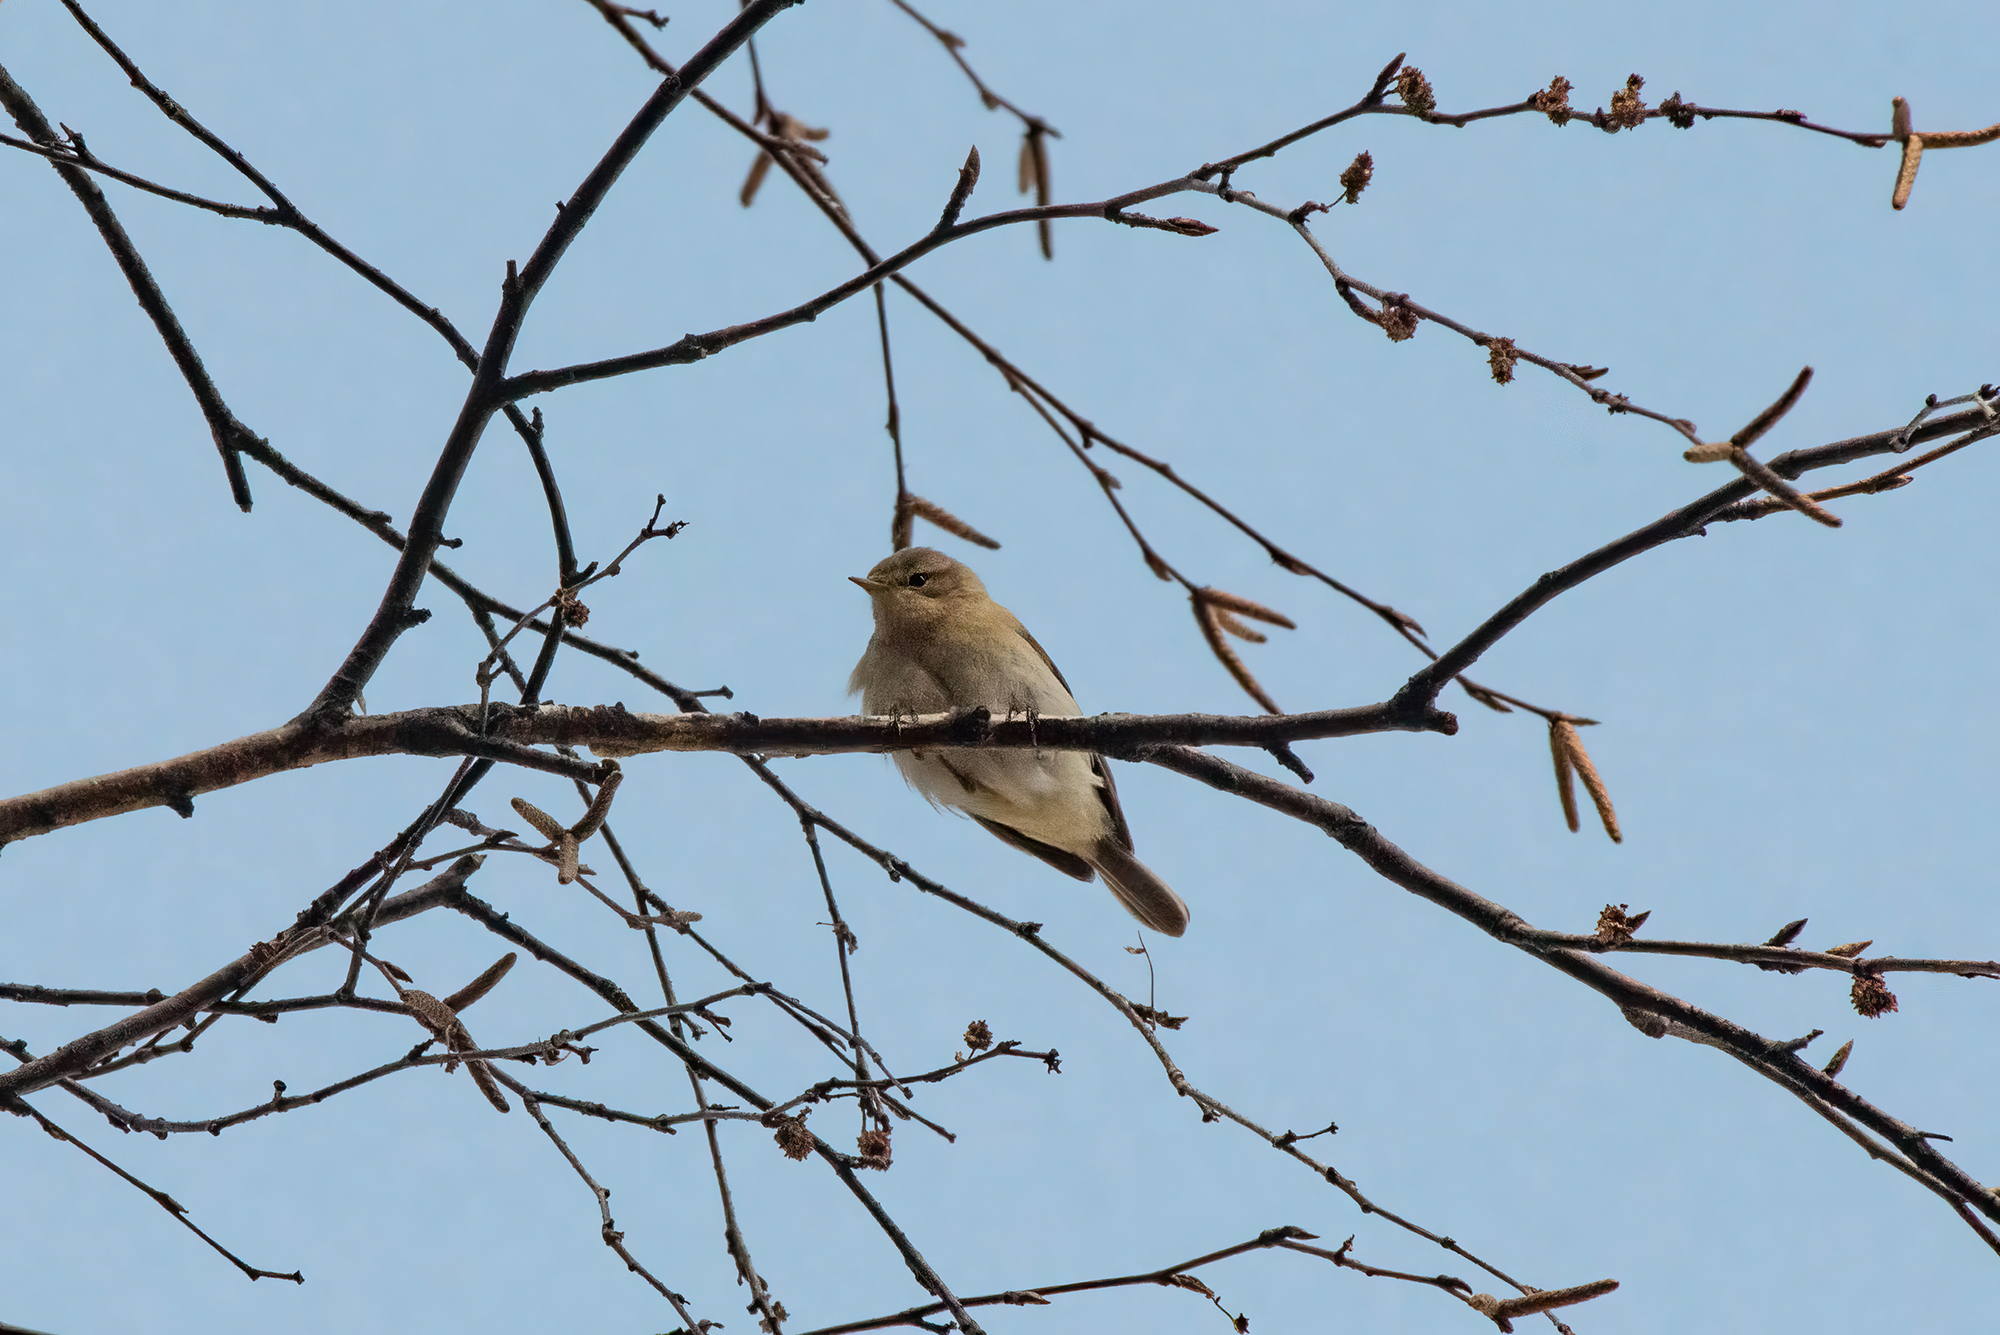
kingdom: Animalia
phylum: Chordata
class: Aves
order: Passeriformes
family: Phylloscopidae
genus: Phylloscopus
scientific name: Phylloscopus collybita
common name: Common chiffchaff
